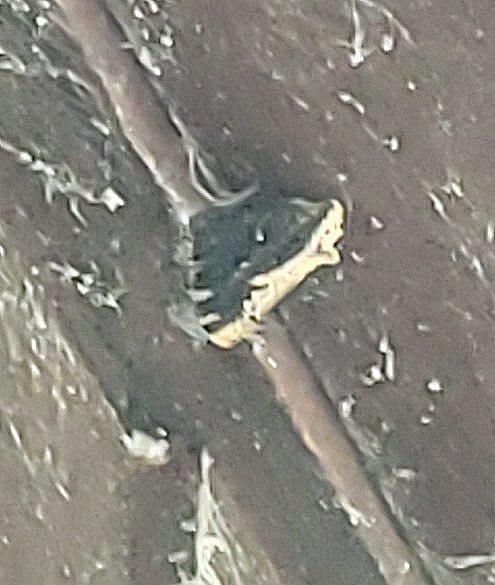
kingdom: Animalia
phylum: Arthropoda
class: Insecta
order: Lepidoptera
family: Nymphalidae
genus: Nymphalis
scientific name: Nymphalis antiopa
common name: Camberwell beauty
